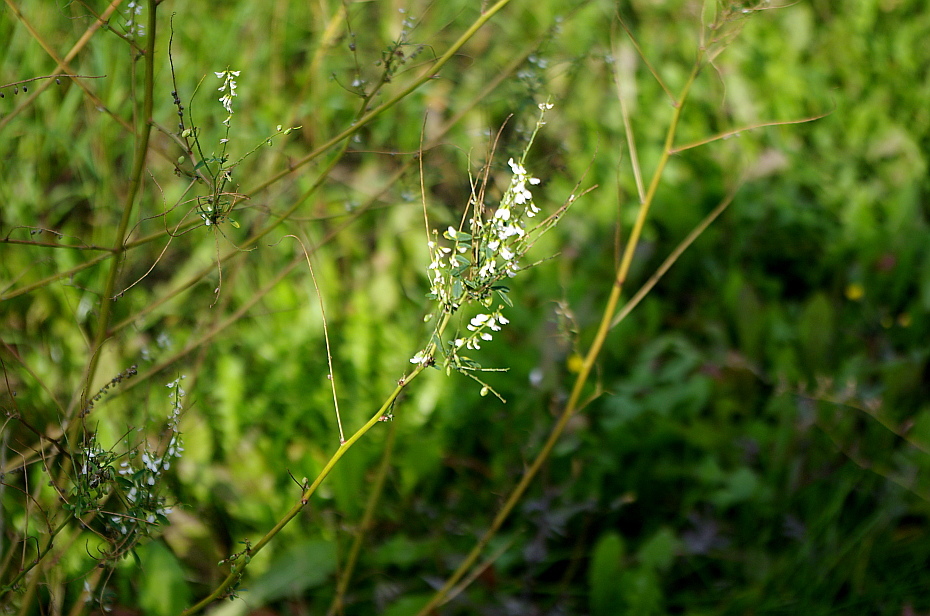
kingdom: Plantae
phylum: Tracheophyta
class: Magnoliopsida
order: Fabales
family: Fabaceae
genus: Melilotus
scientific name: Melilotus albus
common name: White melilot
